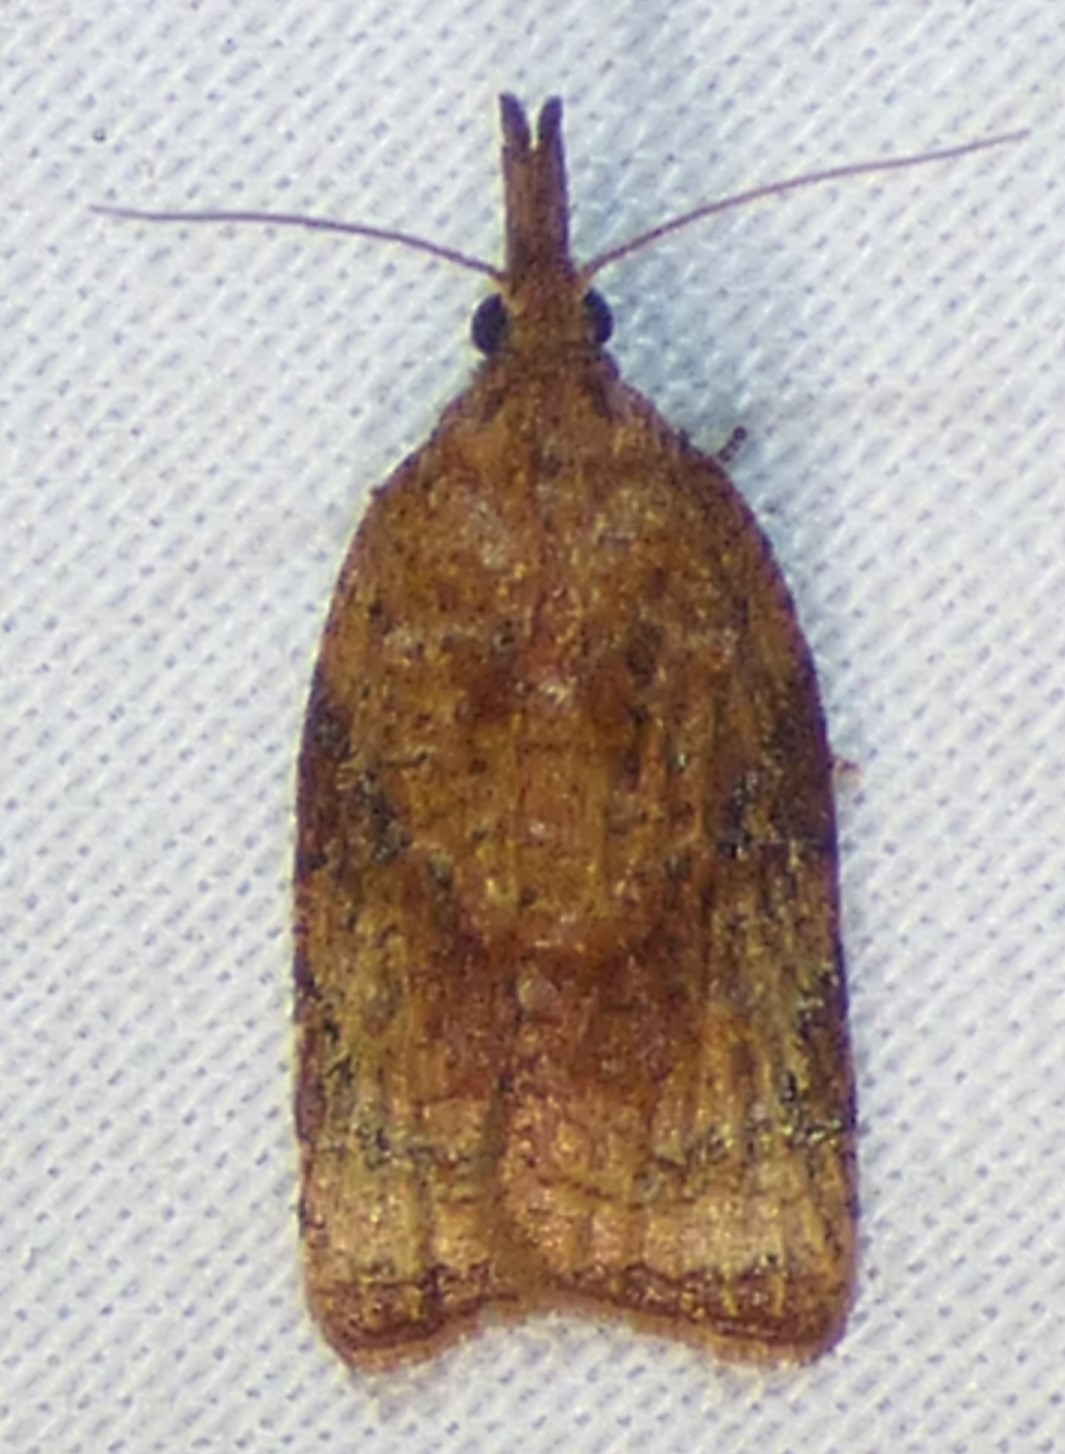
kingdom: Animalia
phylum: Arthropoda
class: Insecta
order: Lepidoptera
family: Tortricidae
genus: Platynota
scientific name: Platynota flavedana
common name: Black-shaded platynota moth
